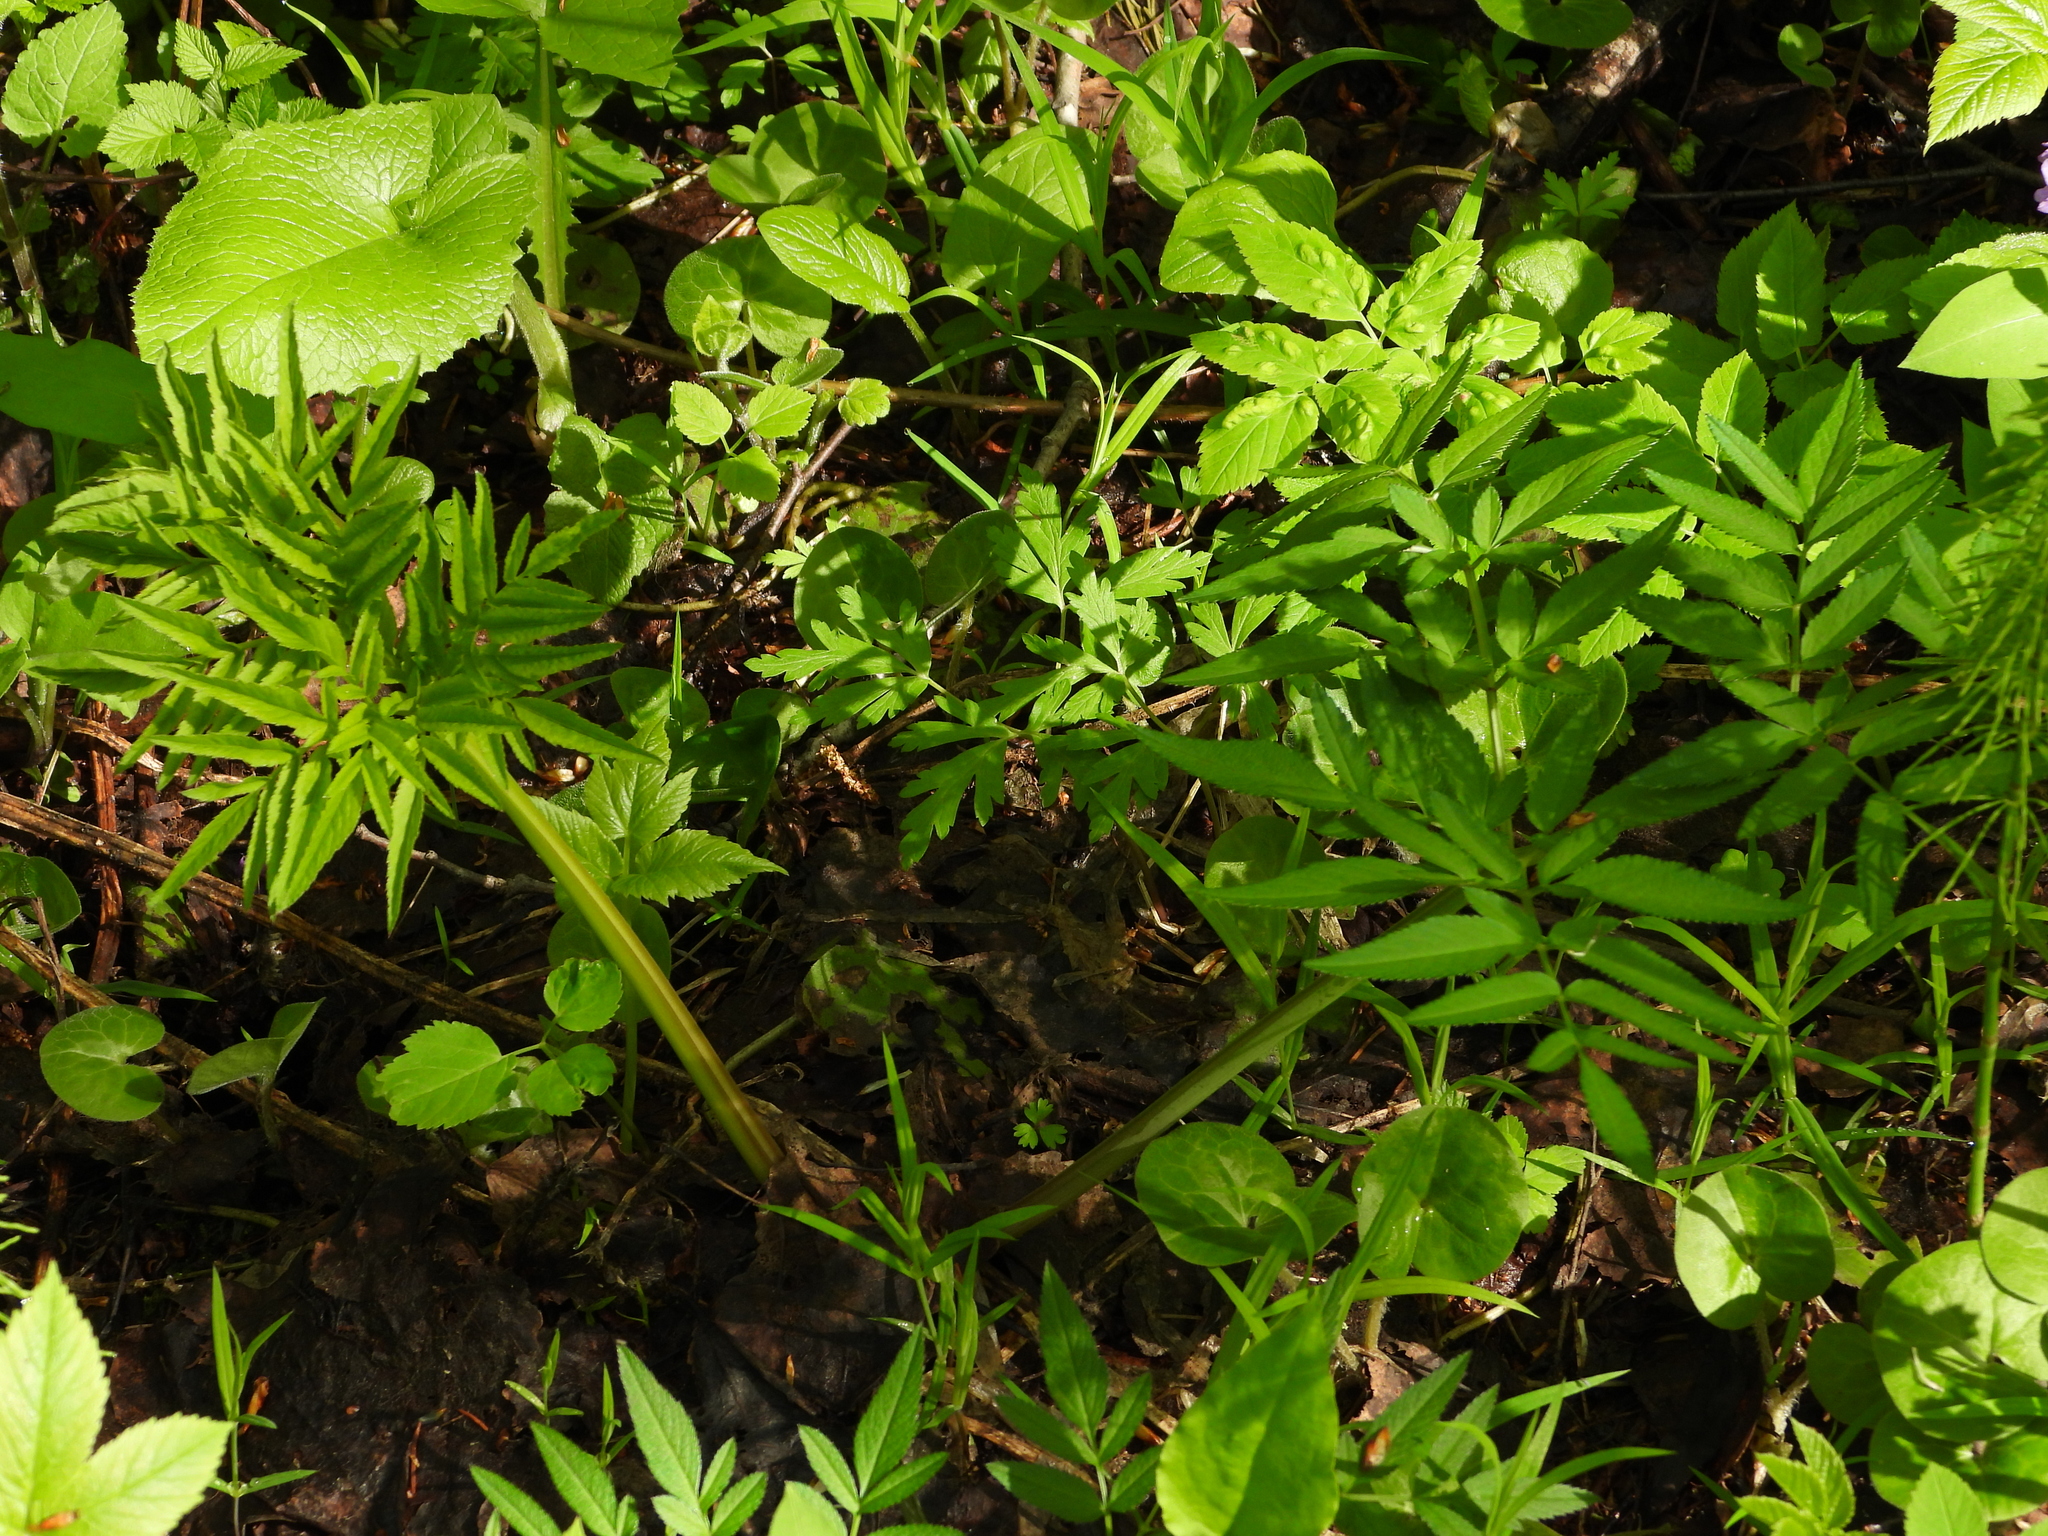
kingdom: Plantae
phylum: Tracheophyta
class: Magnoliopsida
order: Apiales
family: Apiaceae
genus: Angelica
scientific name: Angelica sylvestris
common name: Wild angelica
